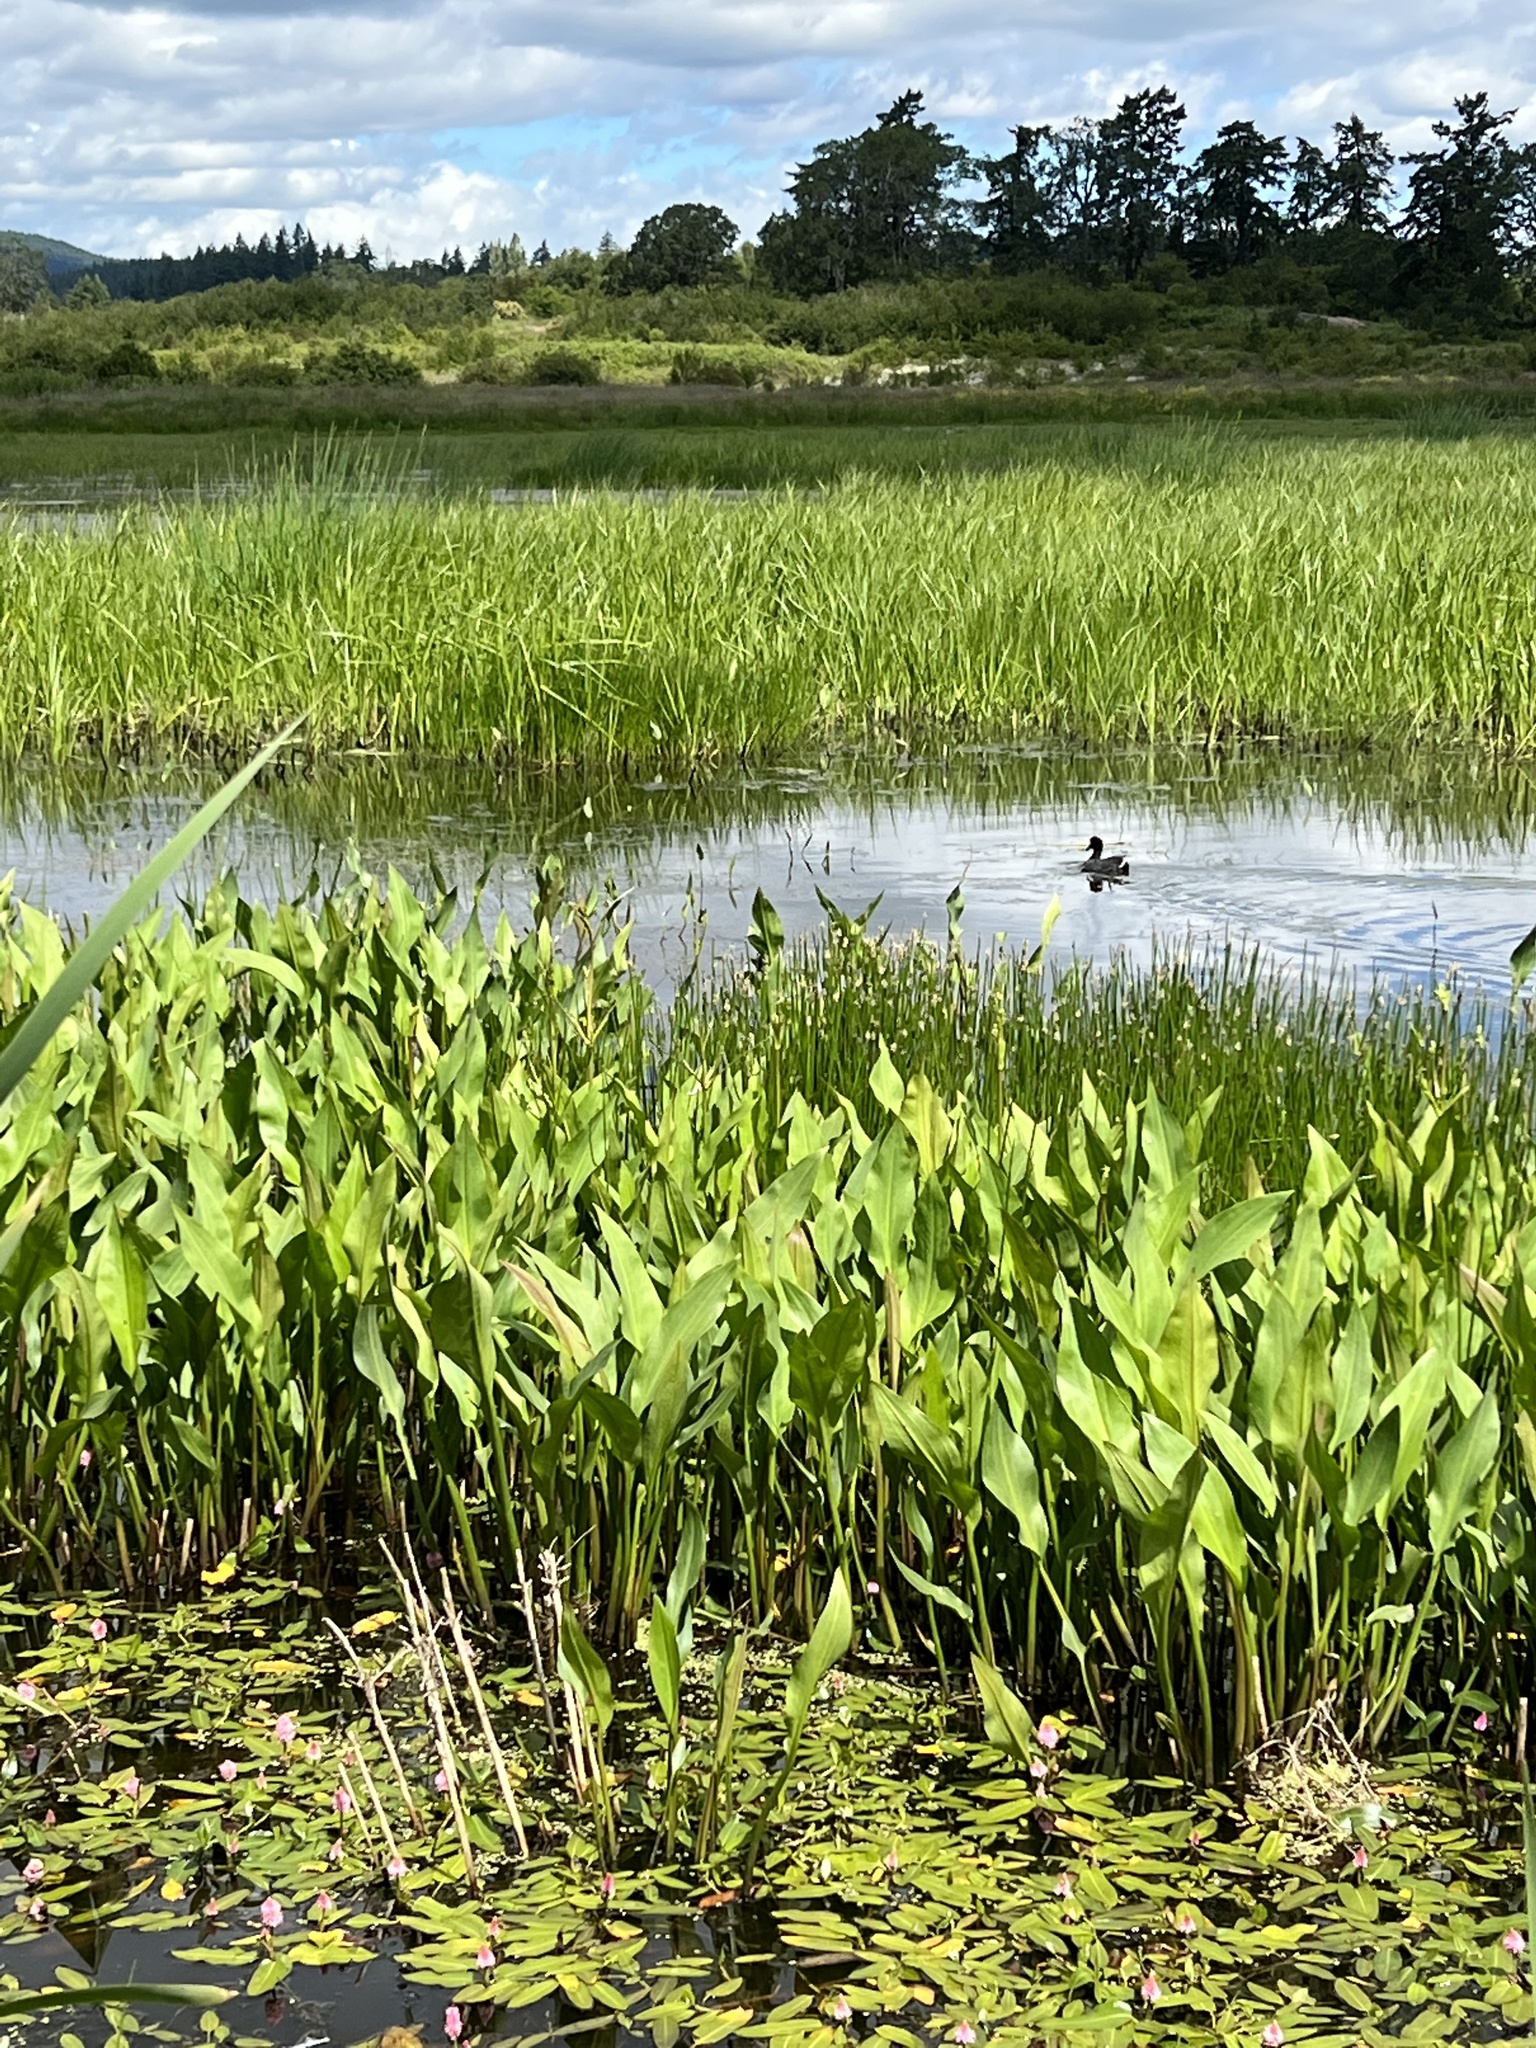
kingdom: Animalia
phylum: Chordata
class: Aves
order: Gruiformes
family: Rallidae
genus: Fulica
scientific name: Fulica americana
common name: American coot
